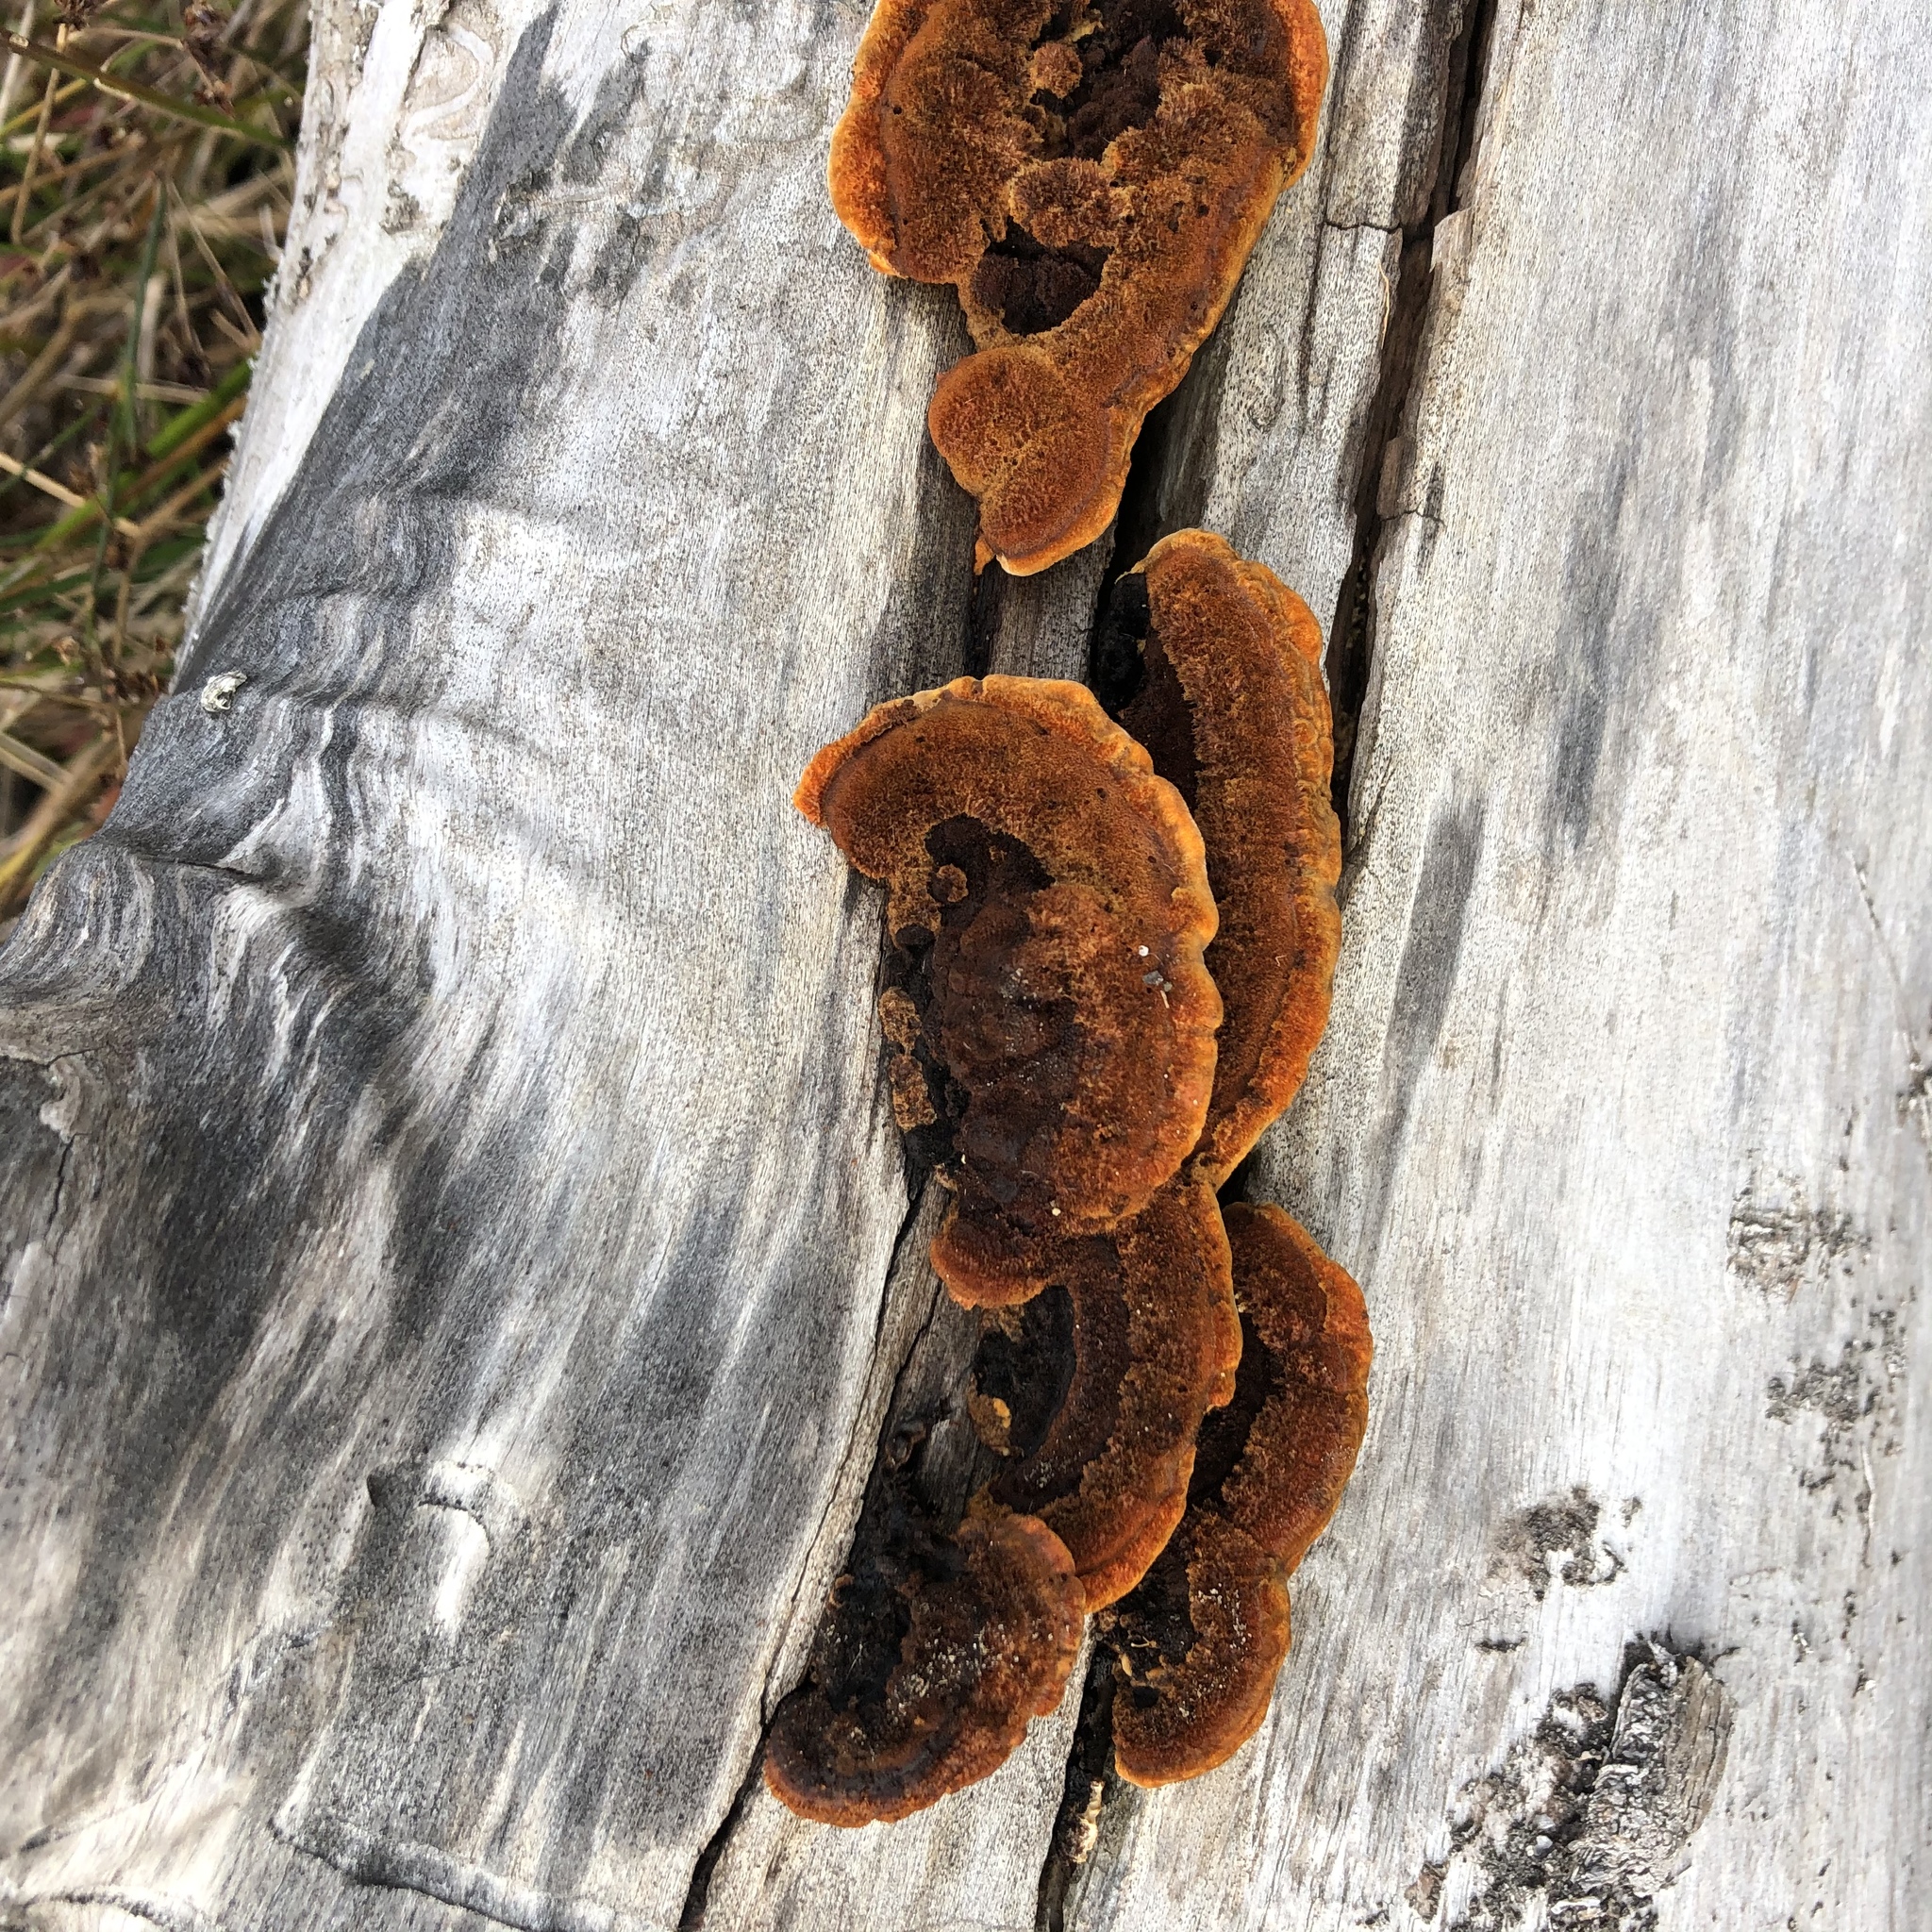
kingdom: Fungi
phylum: Basidiomycota
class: Agaricomycetes
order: Gloeophyllales
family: Gloeophyllaceae
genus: Gloeophyllum
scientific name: Gloeophyllum sepiarium
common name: Conifer mazegill
